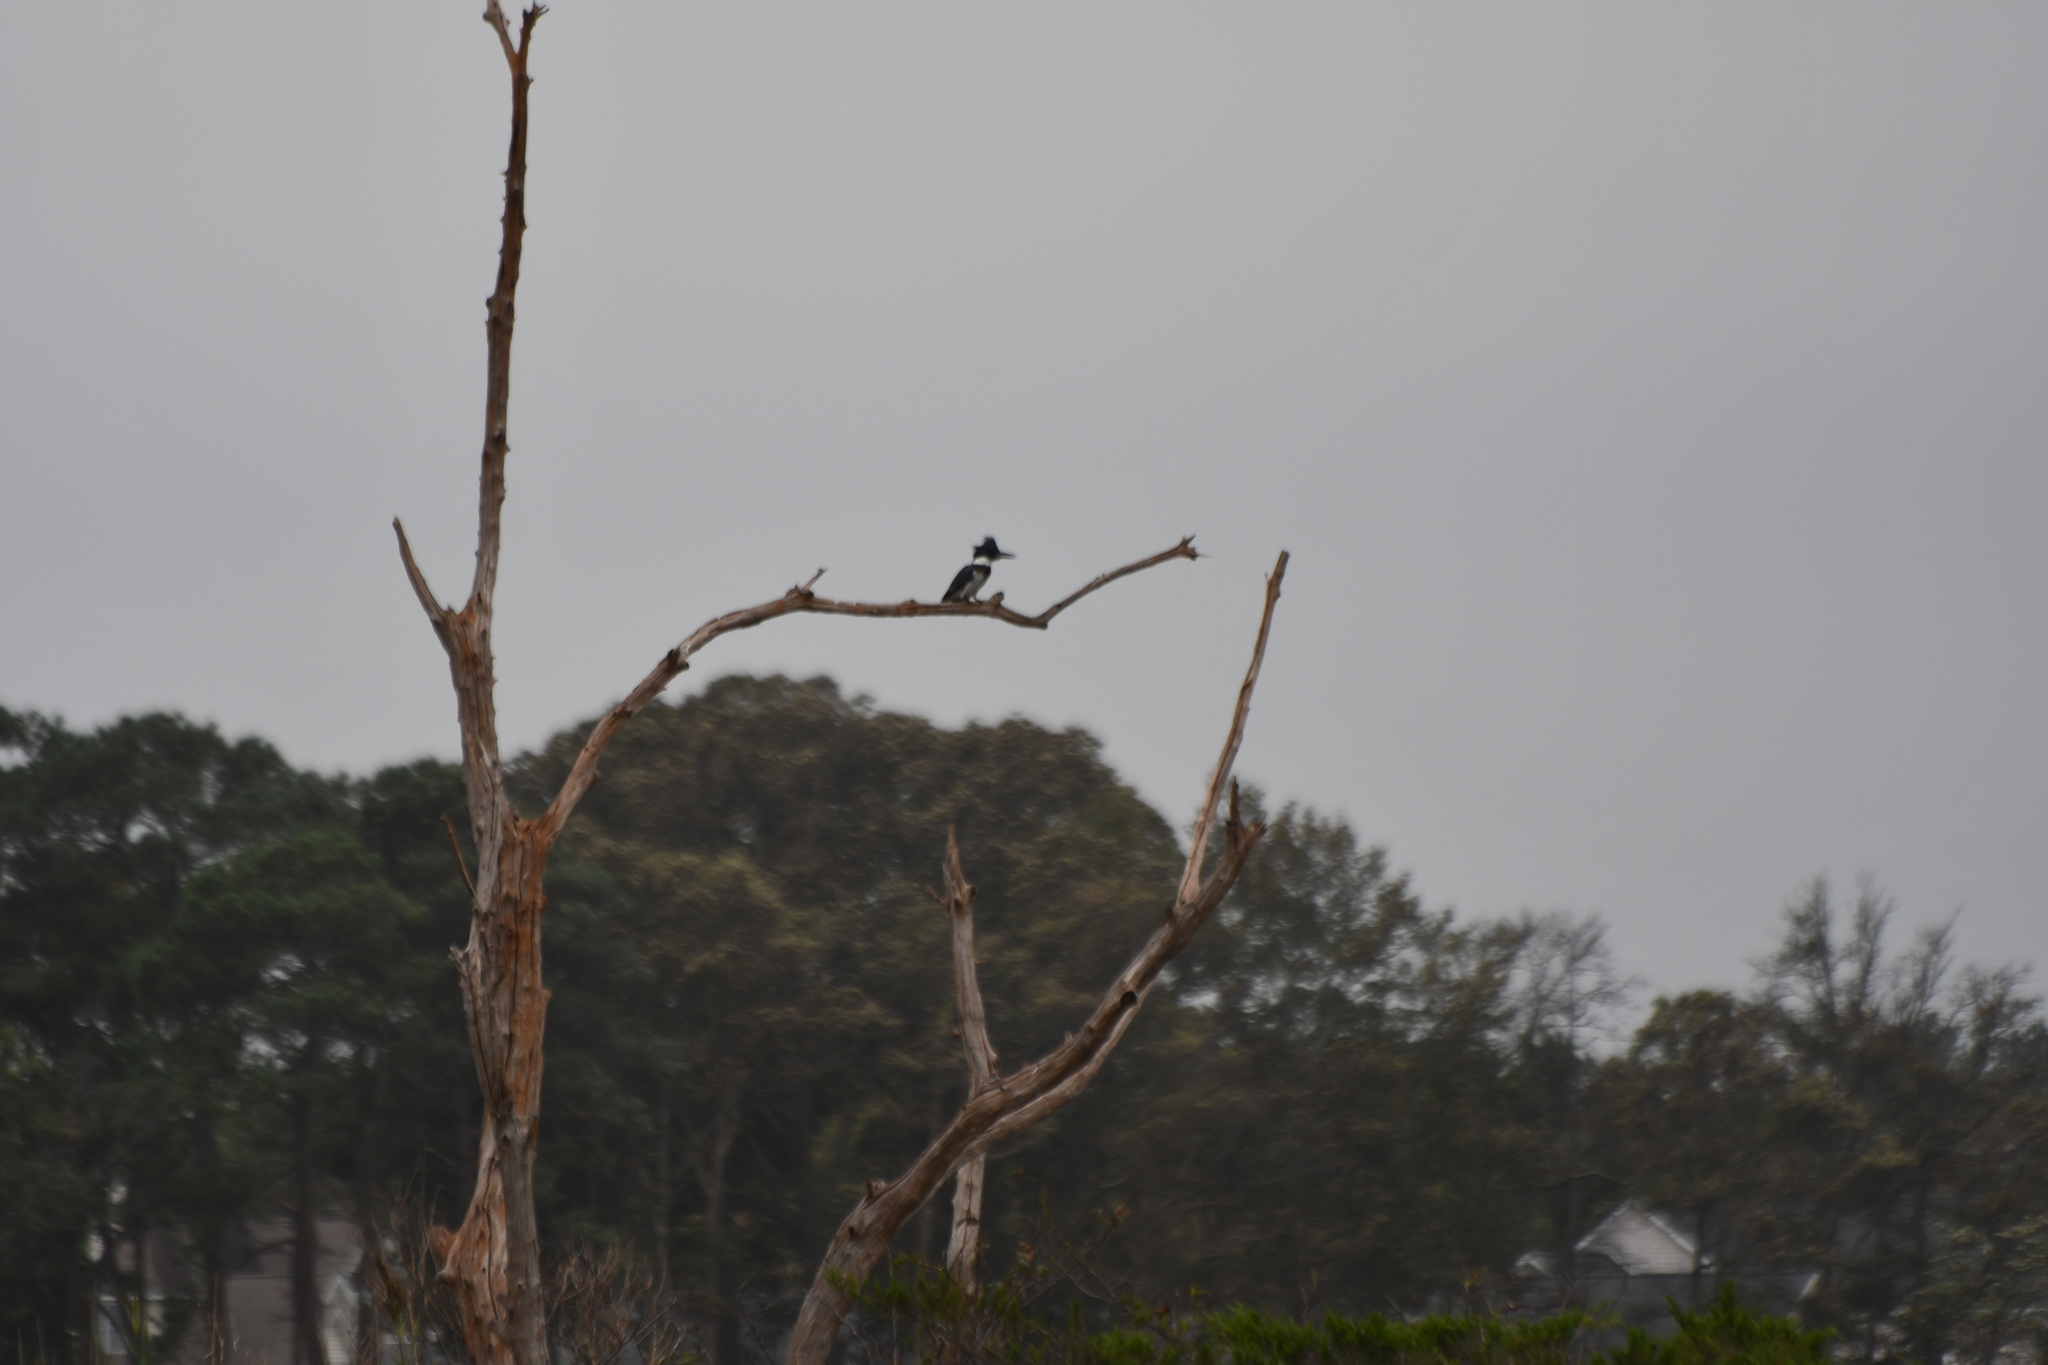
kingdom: Animalia
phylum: Chordata
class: Aves
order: Coraciiformes
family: Alcedinidae
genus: Megaceryle
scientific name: Megaceryle alcyon
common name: Belted kingfisher
